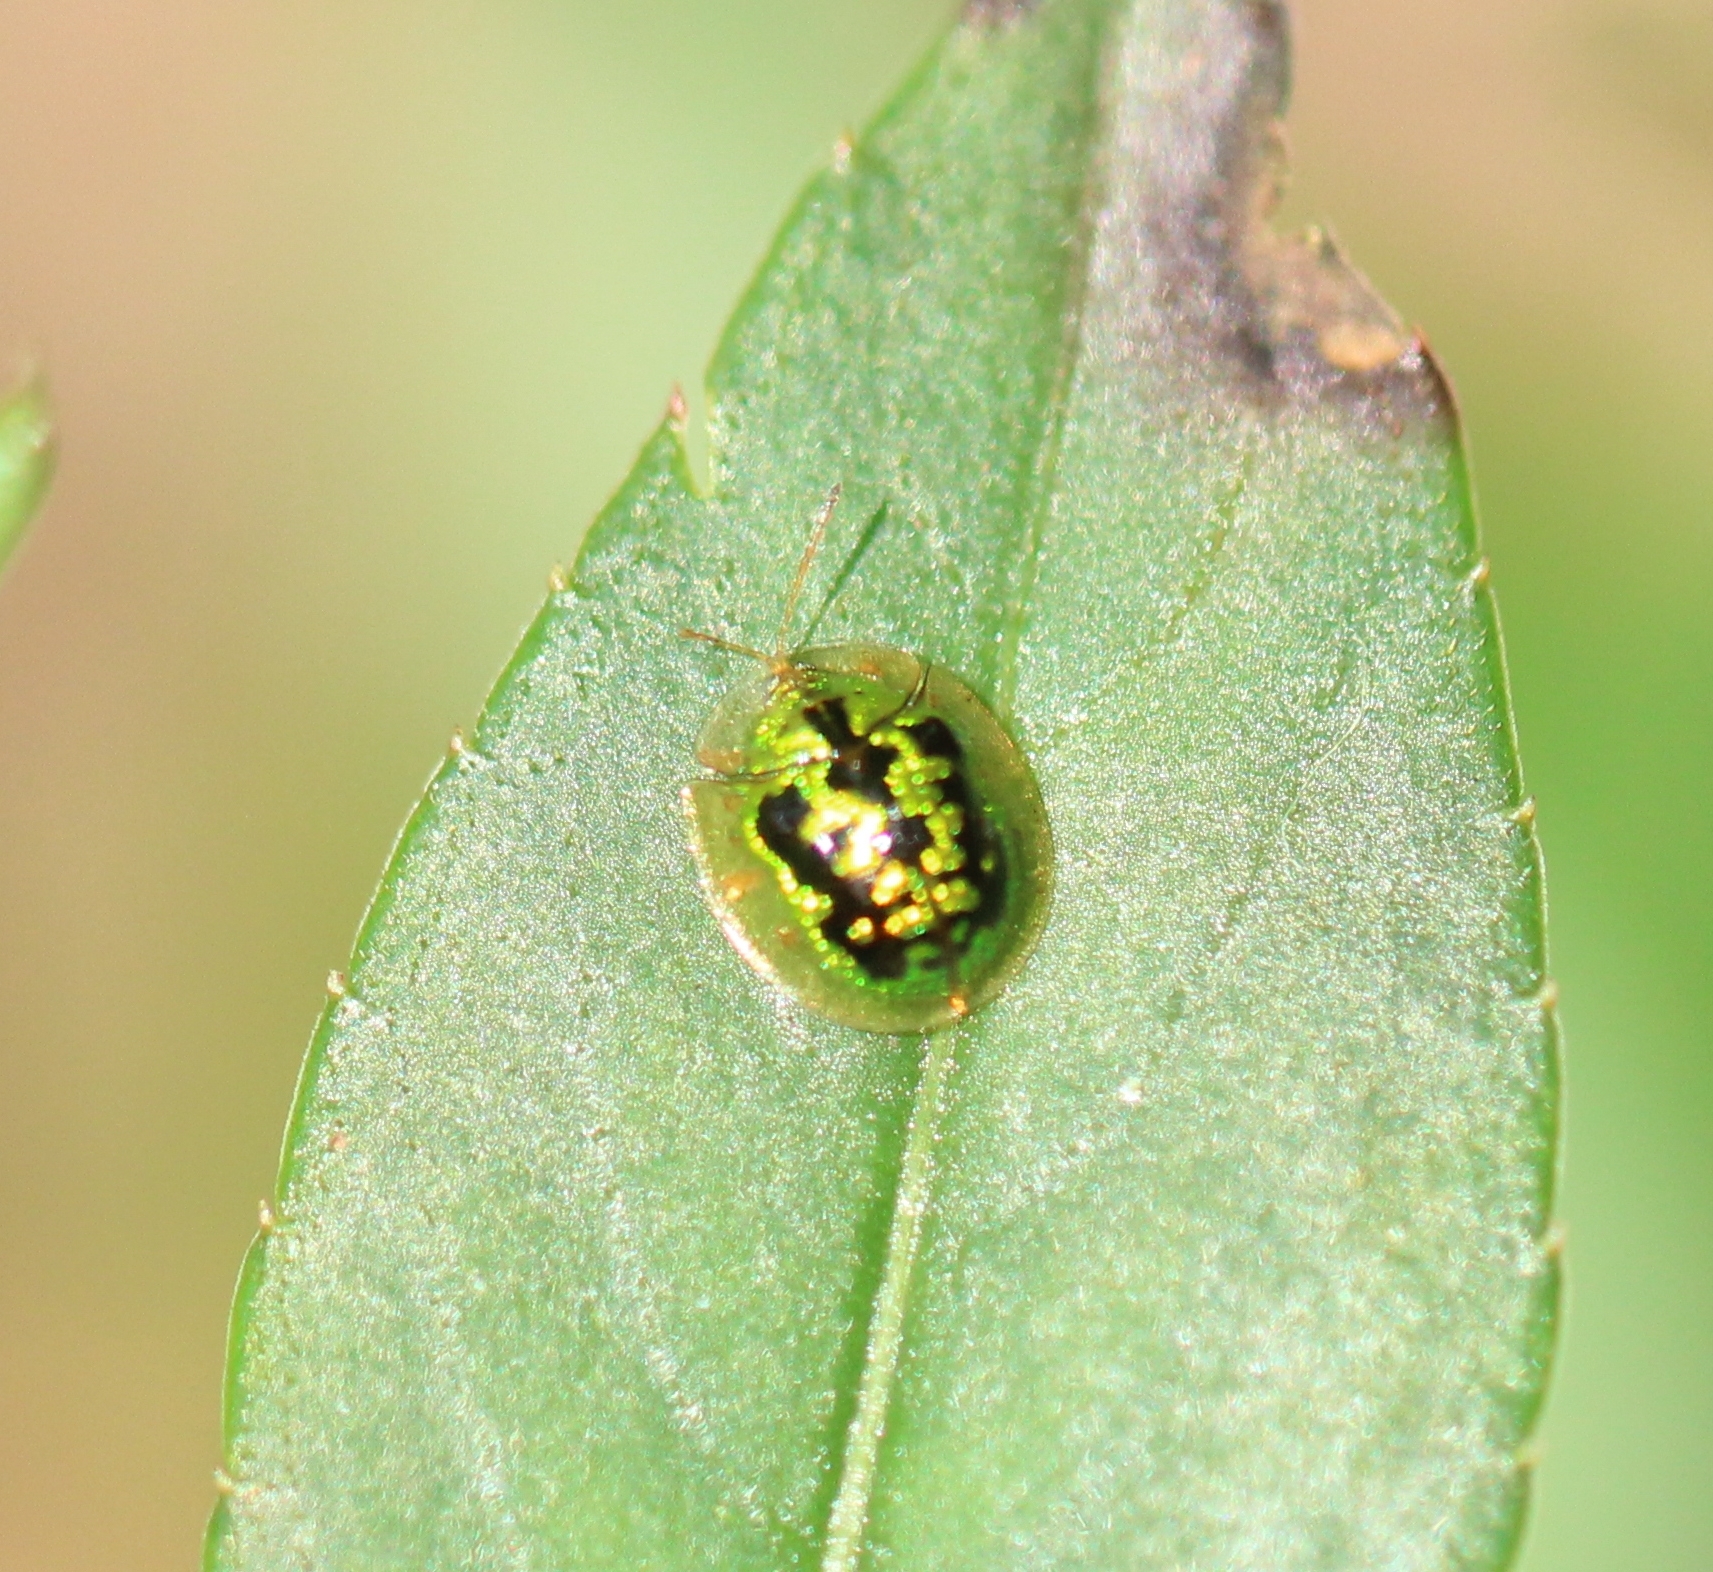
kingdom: Animalia
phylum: Arthropoda
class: Insecta
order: Coleoptera
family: Chrysomelidae
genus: Cassida
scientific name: Cassida circumdata
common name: Tortoise beetle
